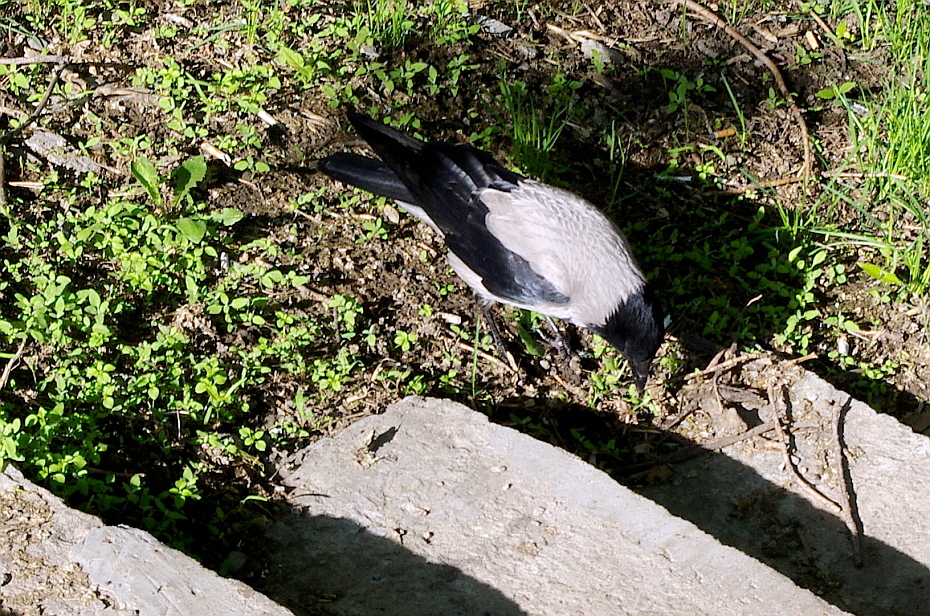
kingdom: Animalia
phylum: Chordata
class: Aves
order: Passeriformes
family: Corvidae
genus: Corvus
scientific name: Corvus cornix
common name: Hooded crow
